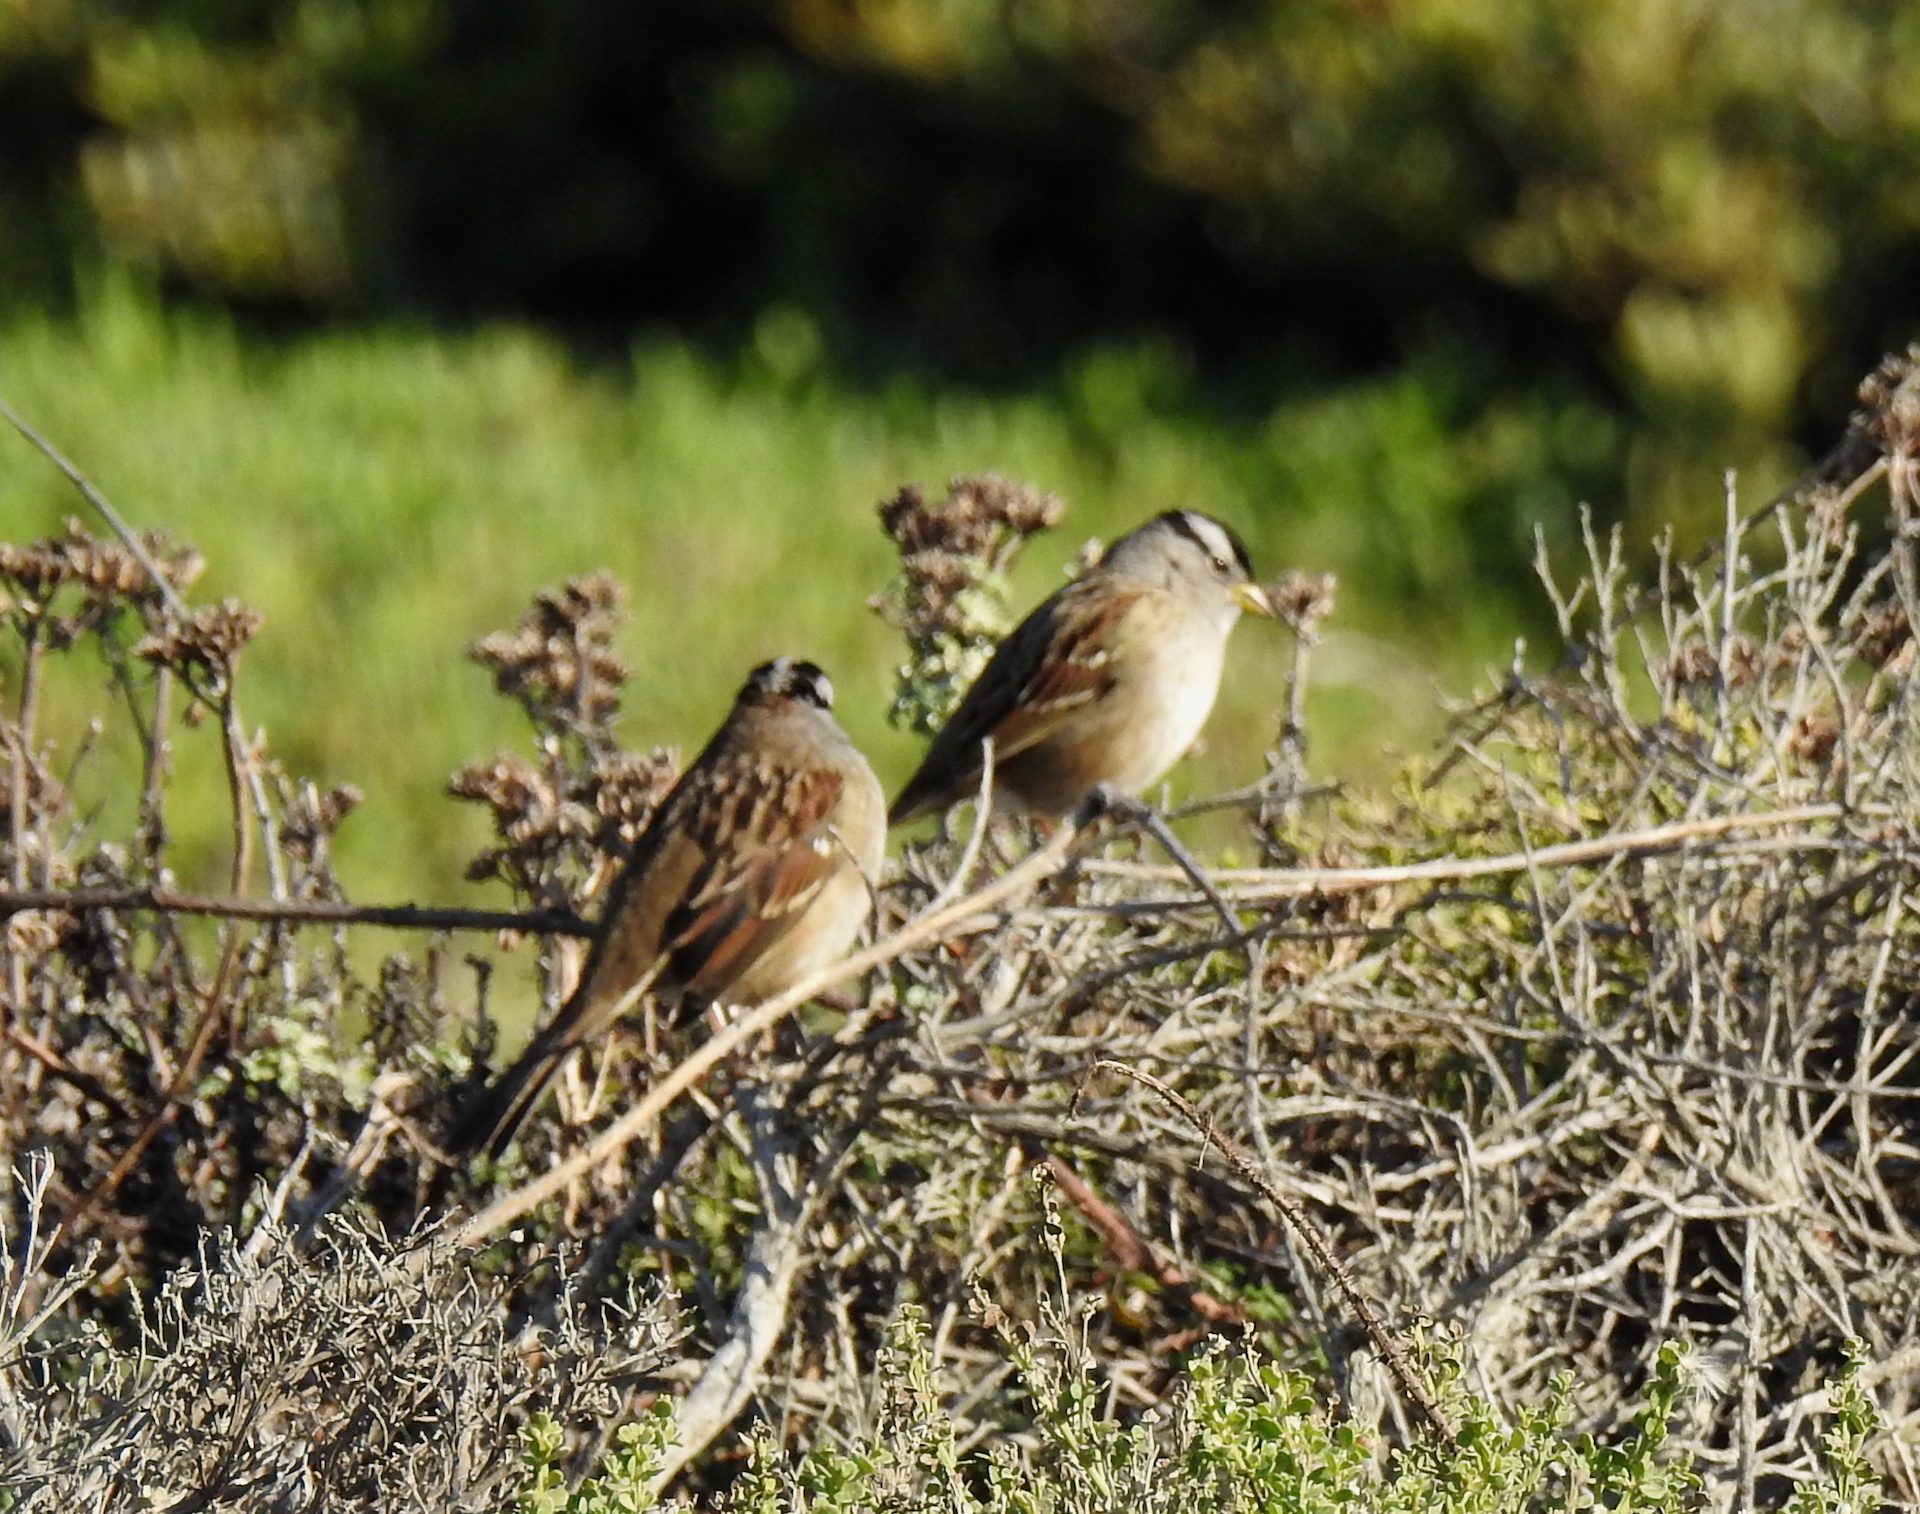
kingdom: Animalia
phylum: Chordata
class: Aves
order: Passeriformes
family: Passerellidae
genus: Zonotrichia
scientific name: Zonotrichia leucophrys
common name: White-crowned sparrow
